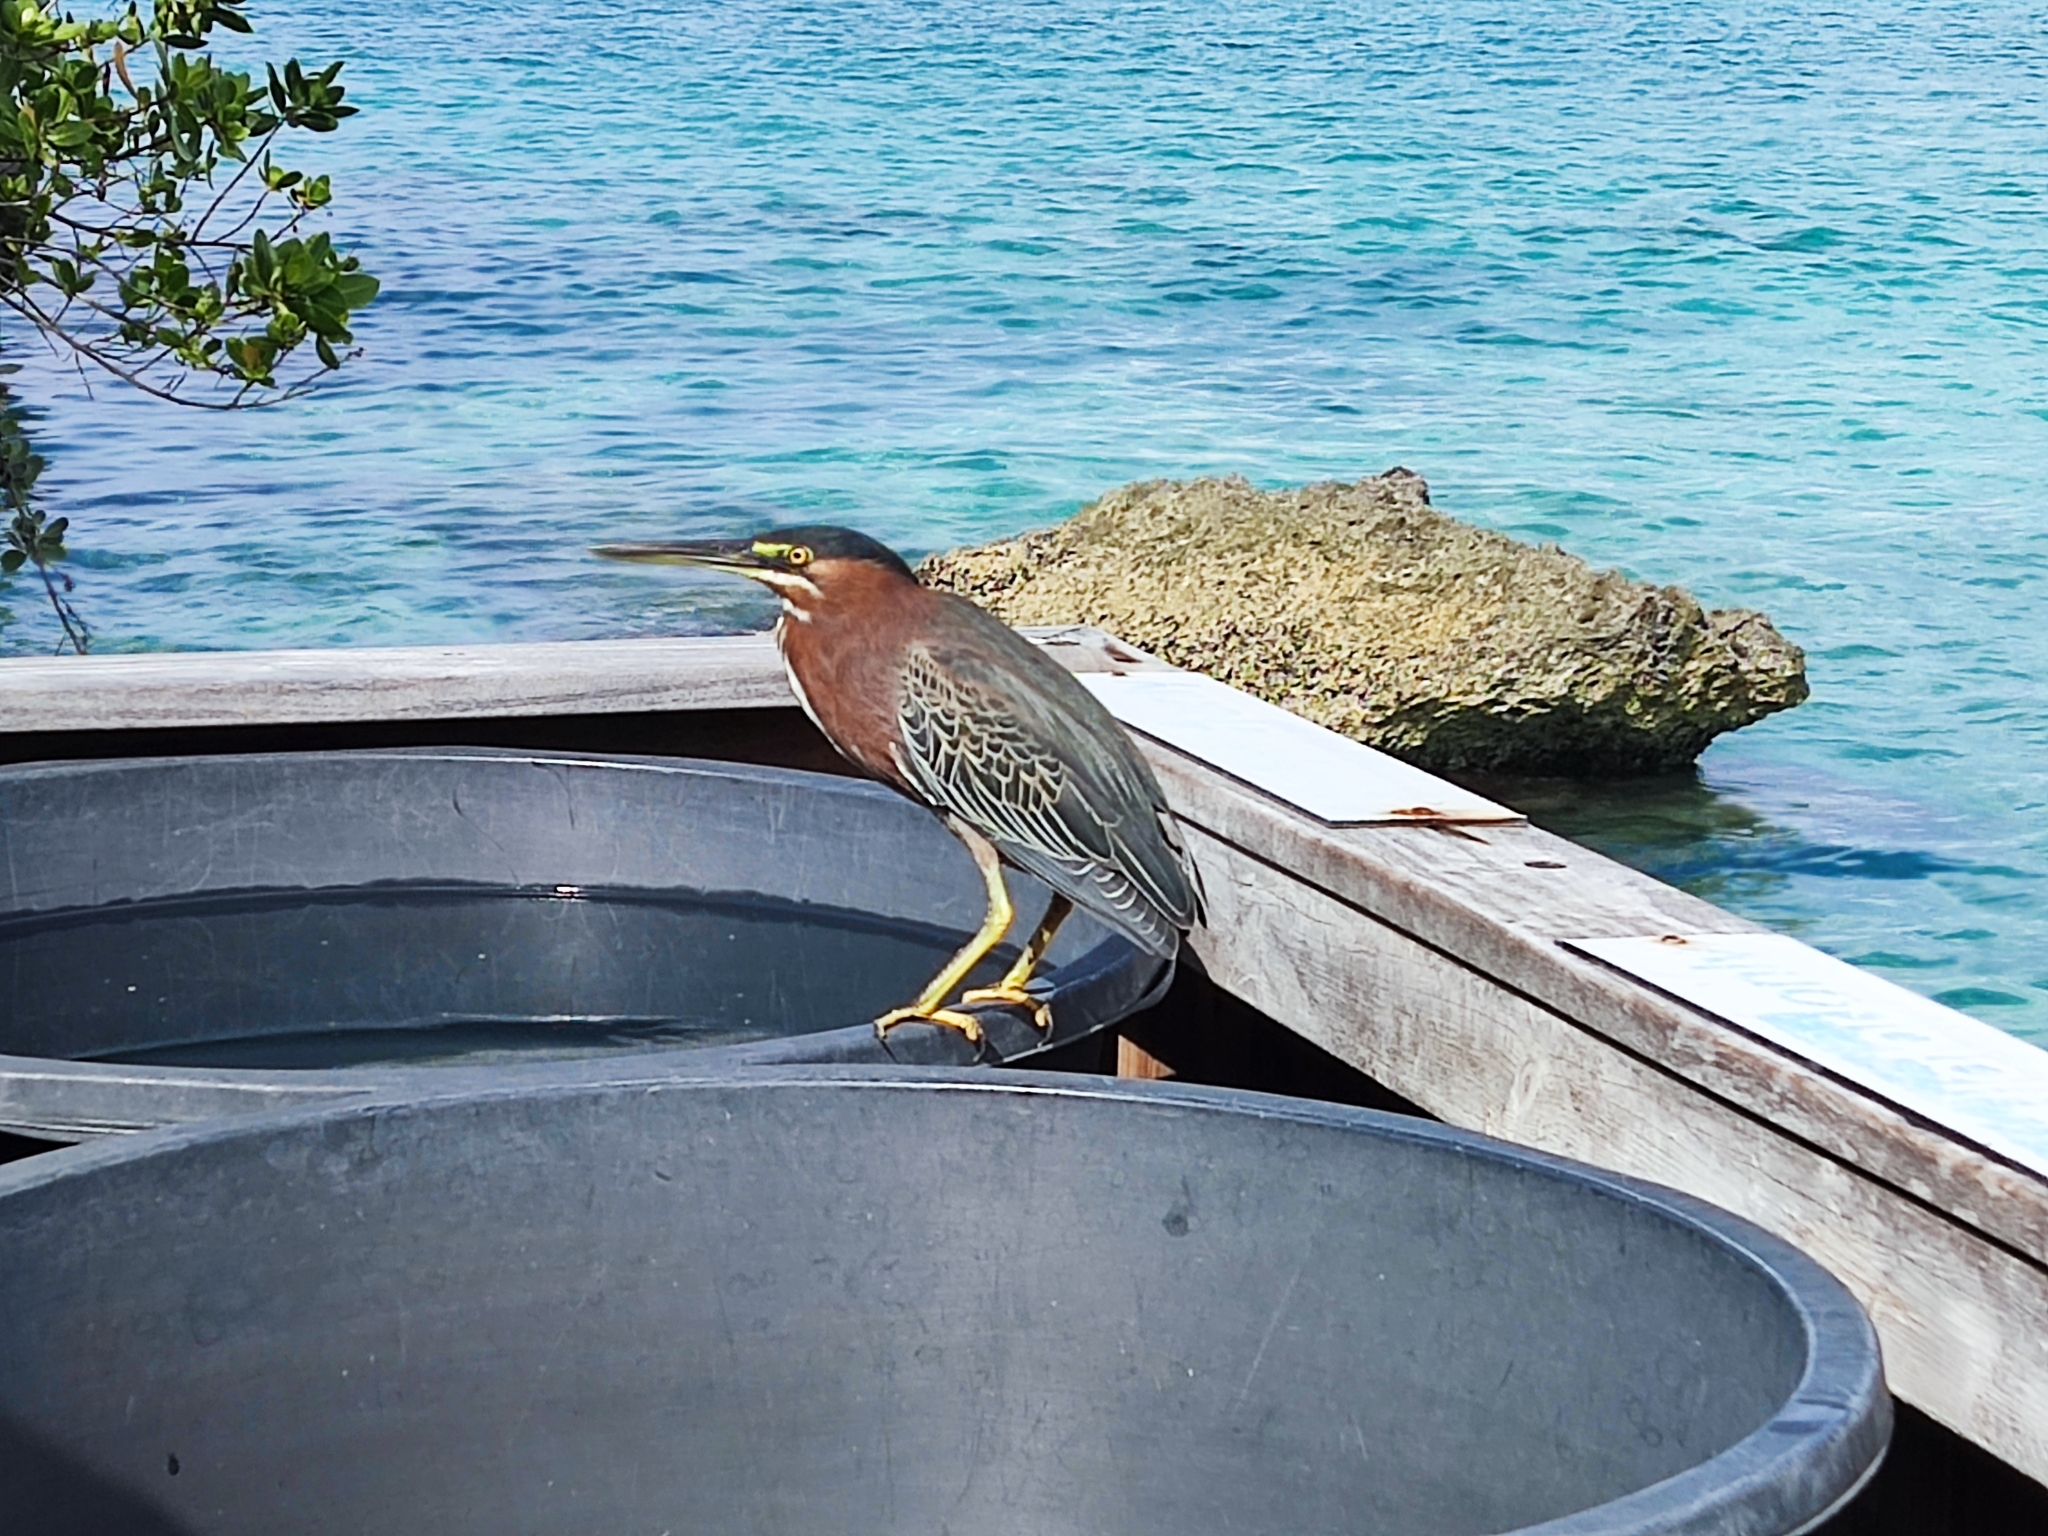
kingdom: Animalia
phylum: Chordata
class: Aves
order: Pelecaniformes
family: Ardeidae
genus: Butorides
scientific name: Butorides virescens
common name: Green heron
